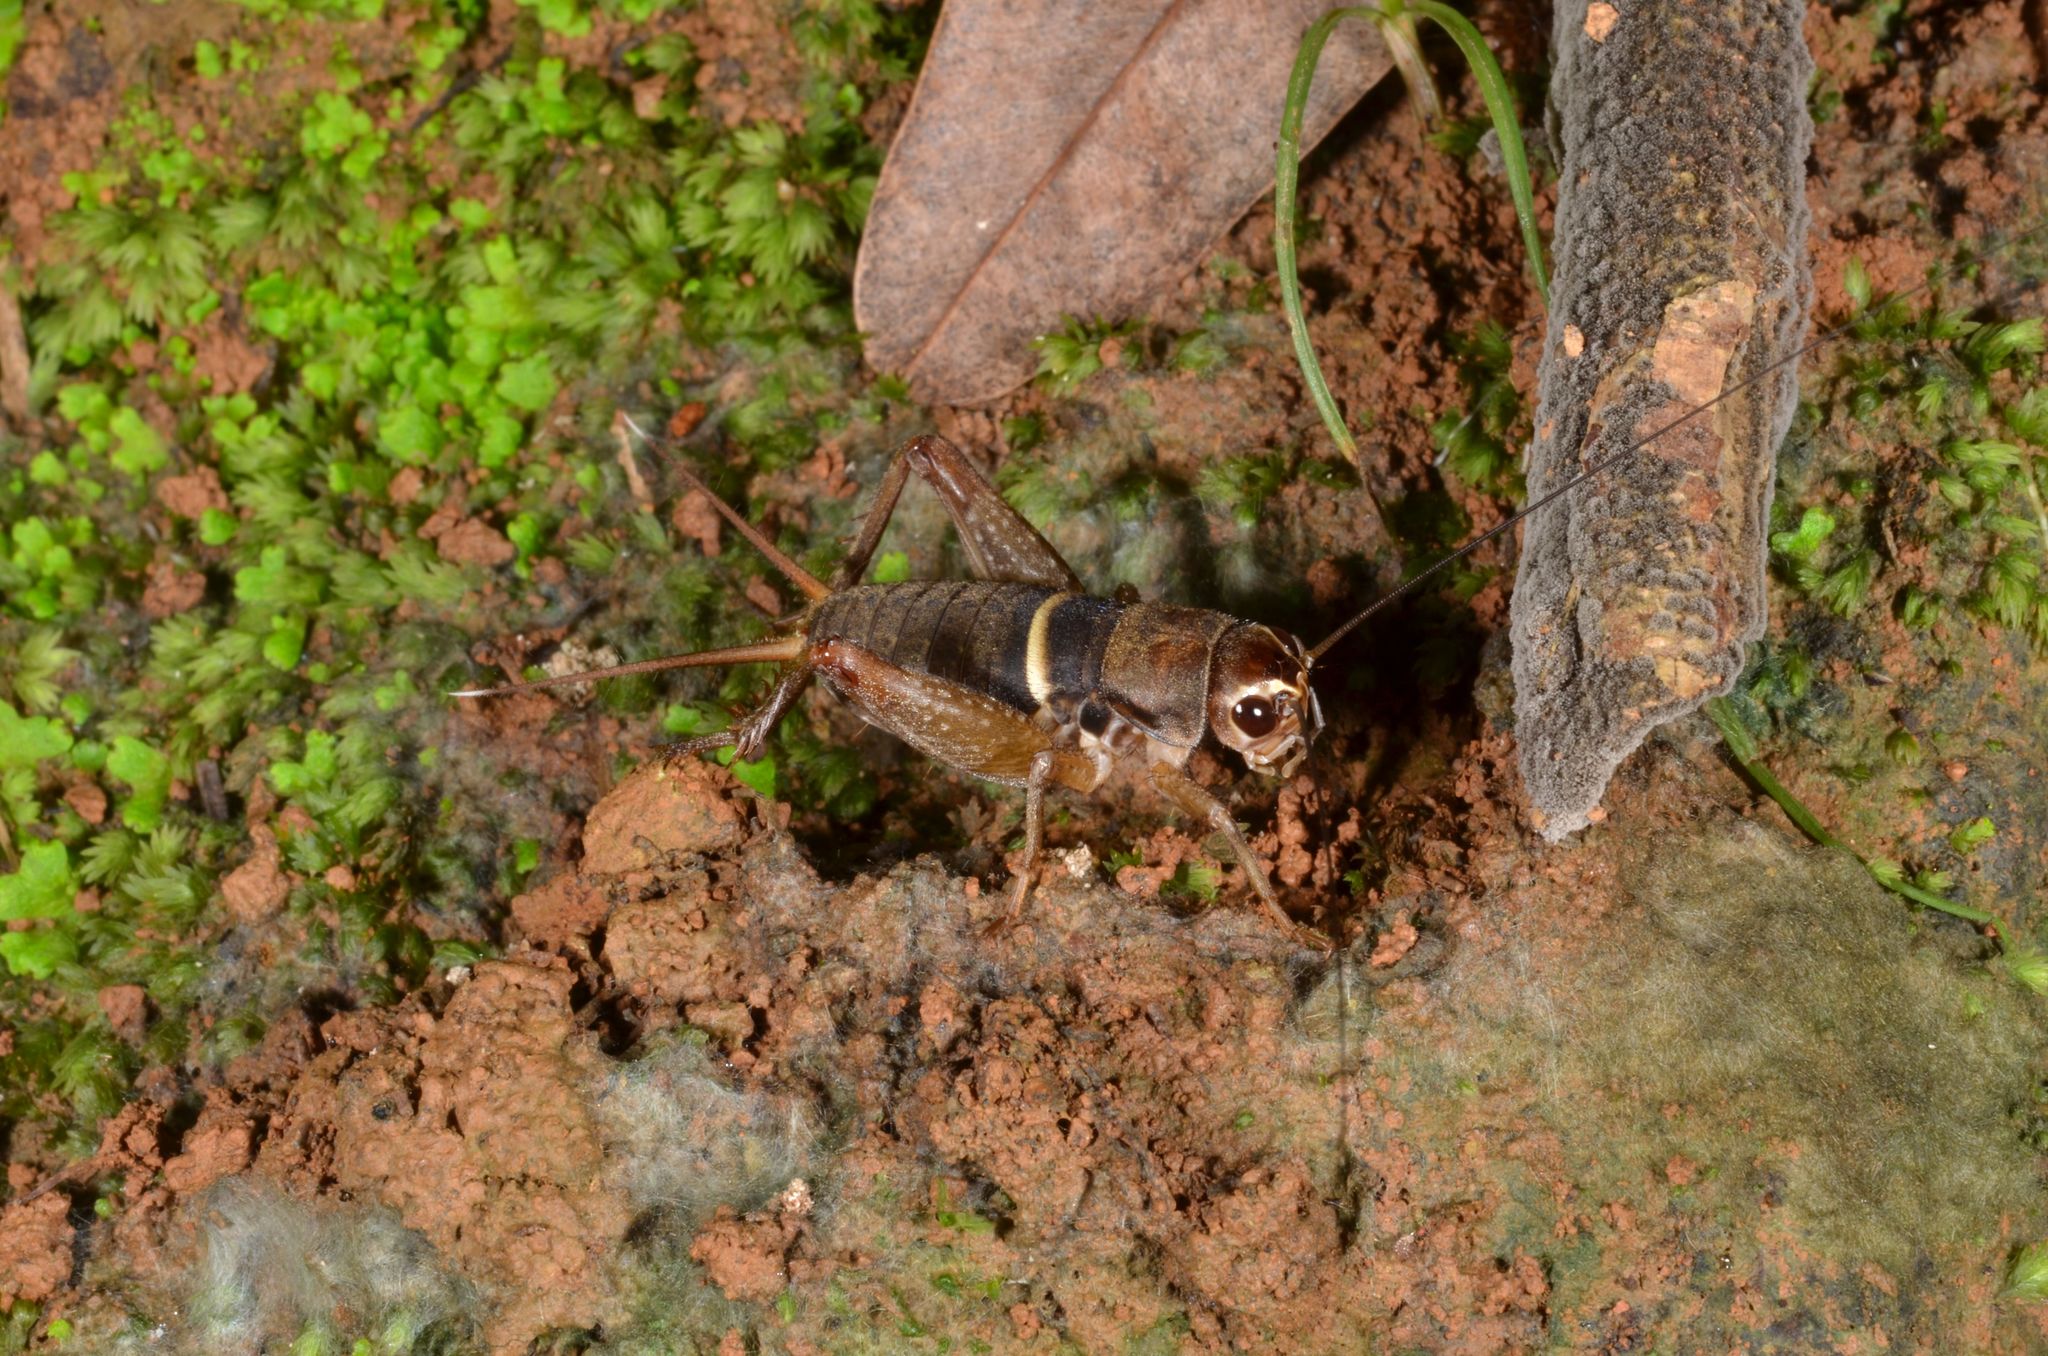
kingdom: Animalia
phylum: Arthropoda
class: Insecta
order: Orthoptera
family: Gryllidae
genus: Teleogryllus
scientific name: Teleogryllus mitratus
